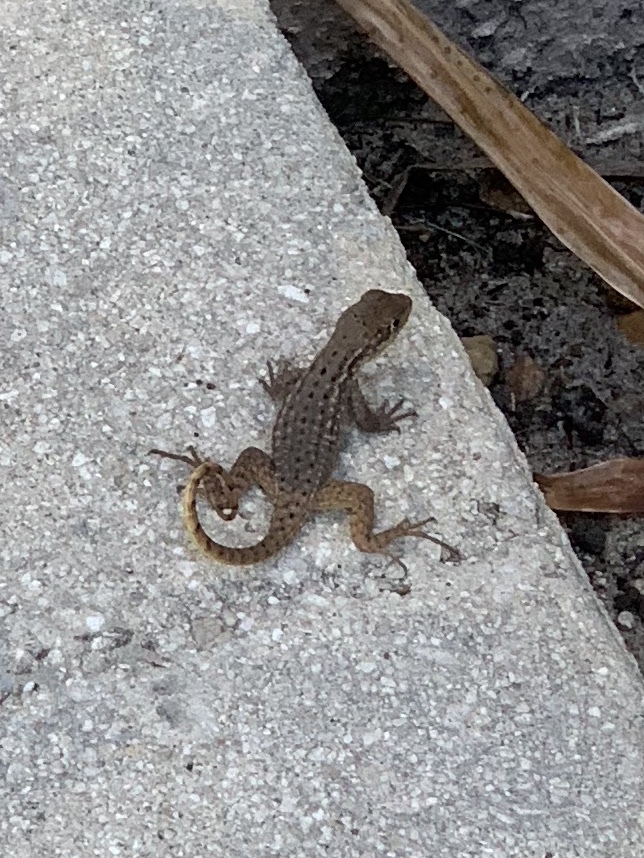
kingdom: Animalia
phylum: Chordata
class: Squamata
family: Leiocephalidae
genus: Leiocephalus
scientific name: Leiocephalus carinatus
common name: Northern curly-tailed lizard
